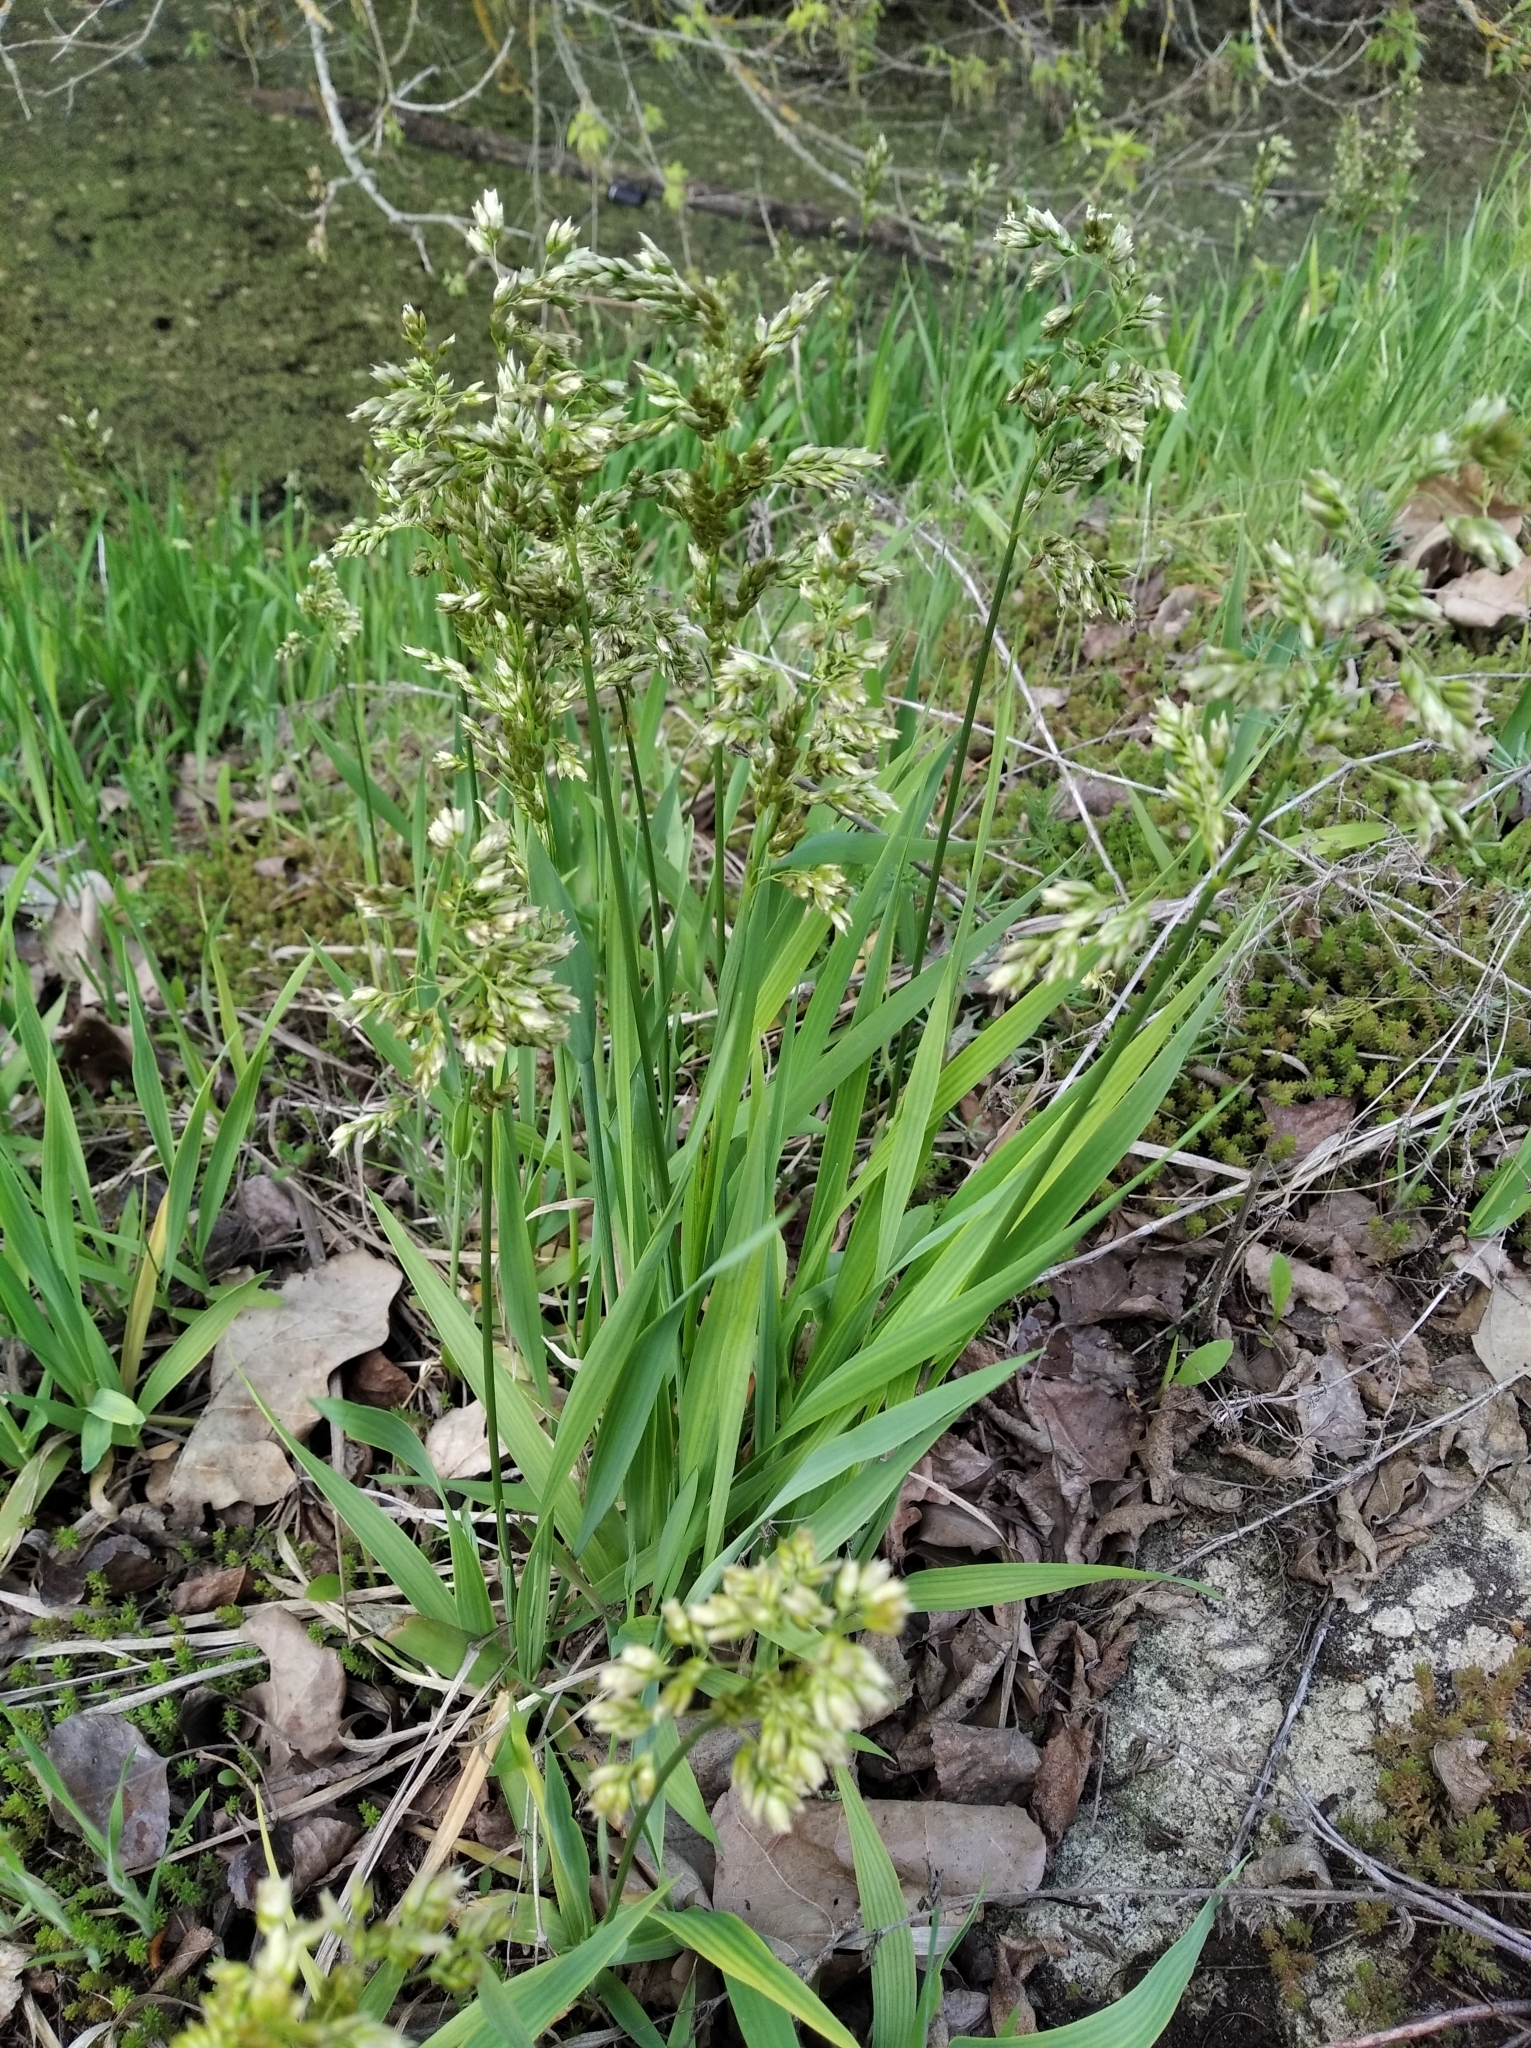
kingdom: Plantae
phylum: Tracheophyta
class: Liliopsida
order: Poales
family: Poaceae
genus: Anthoxanthum
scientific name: Anthoxanthum repens
